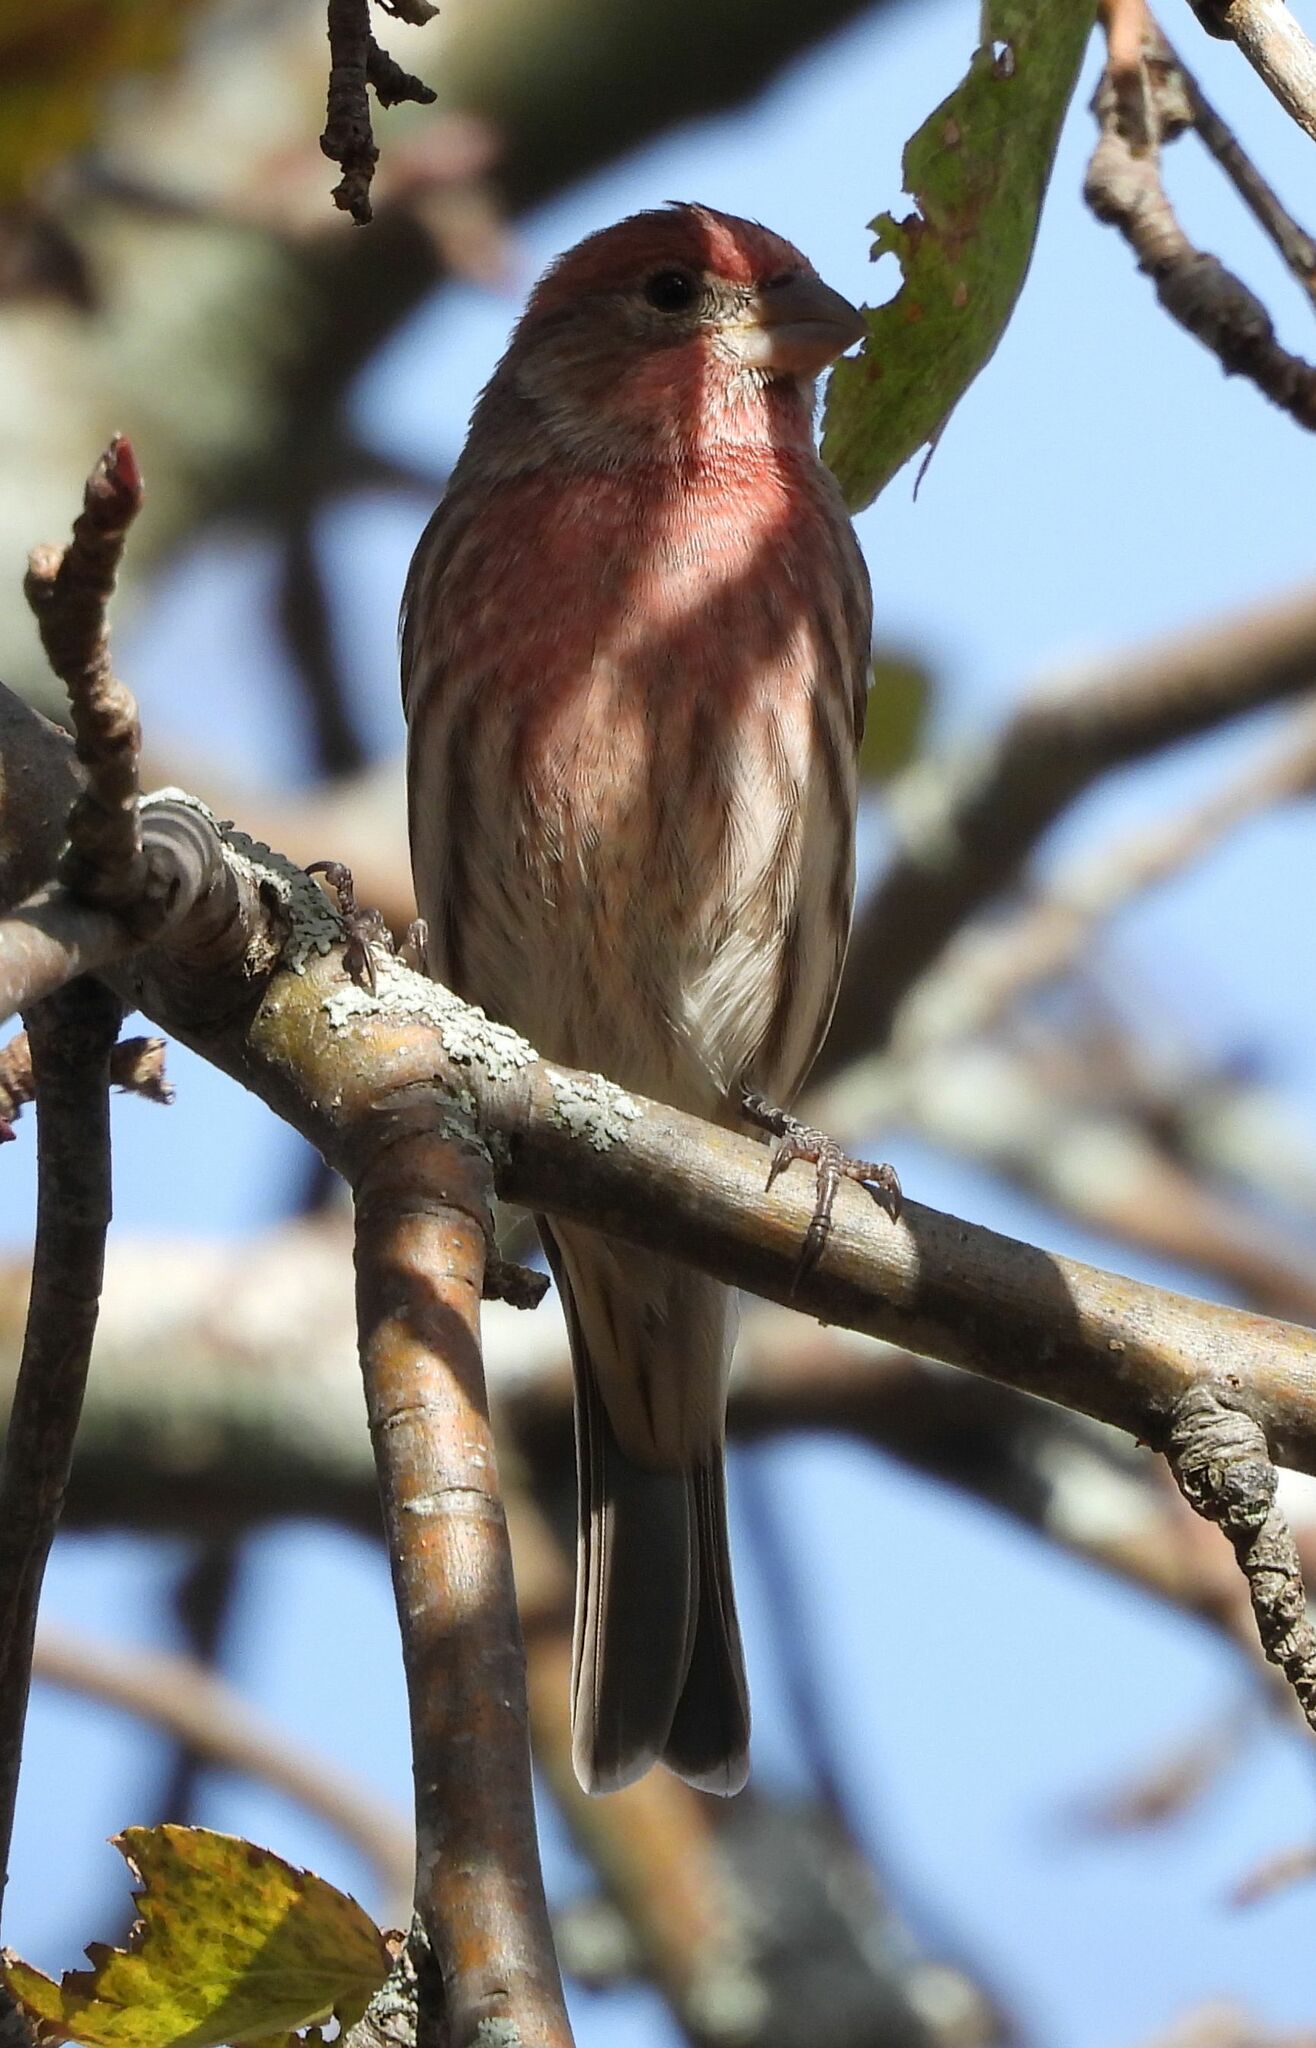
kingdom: Animalia
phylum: Chordata
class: Aves
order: Passeriformes
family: Fringillidae
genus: Haemorhous
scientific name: Haemorhous mexicanus
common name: House finch
